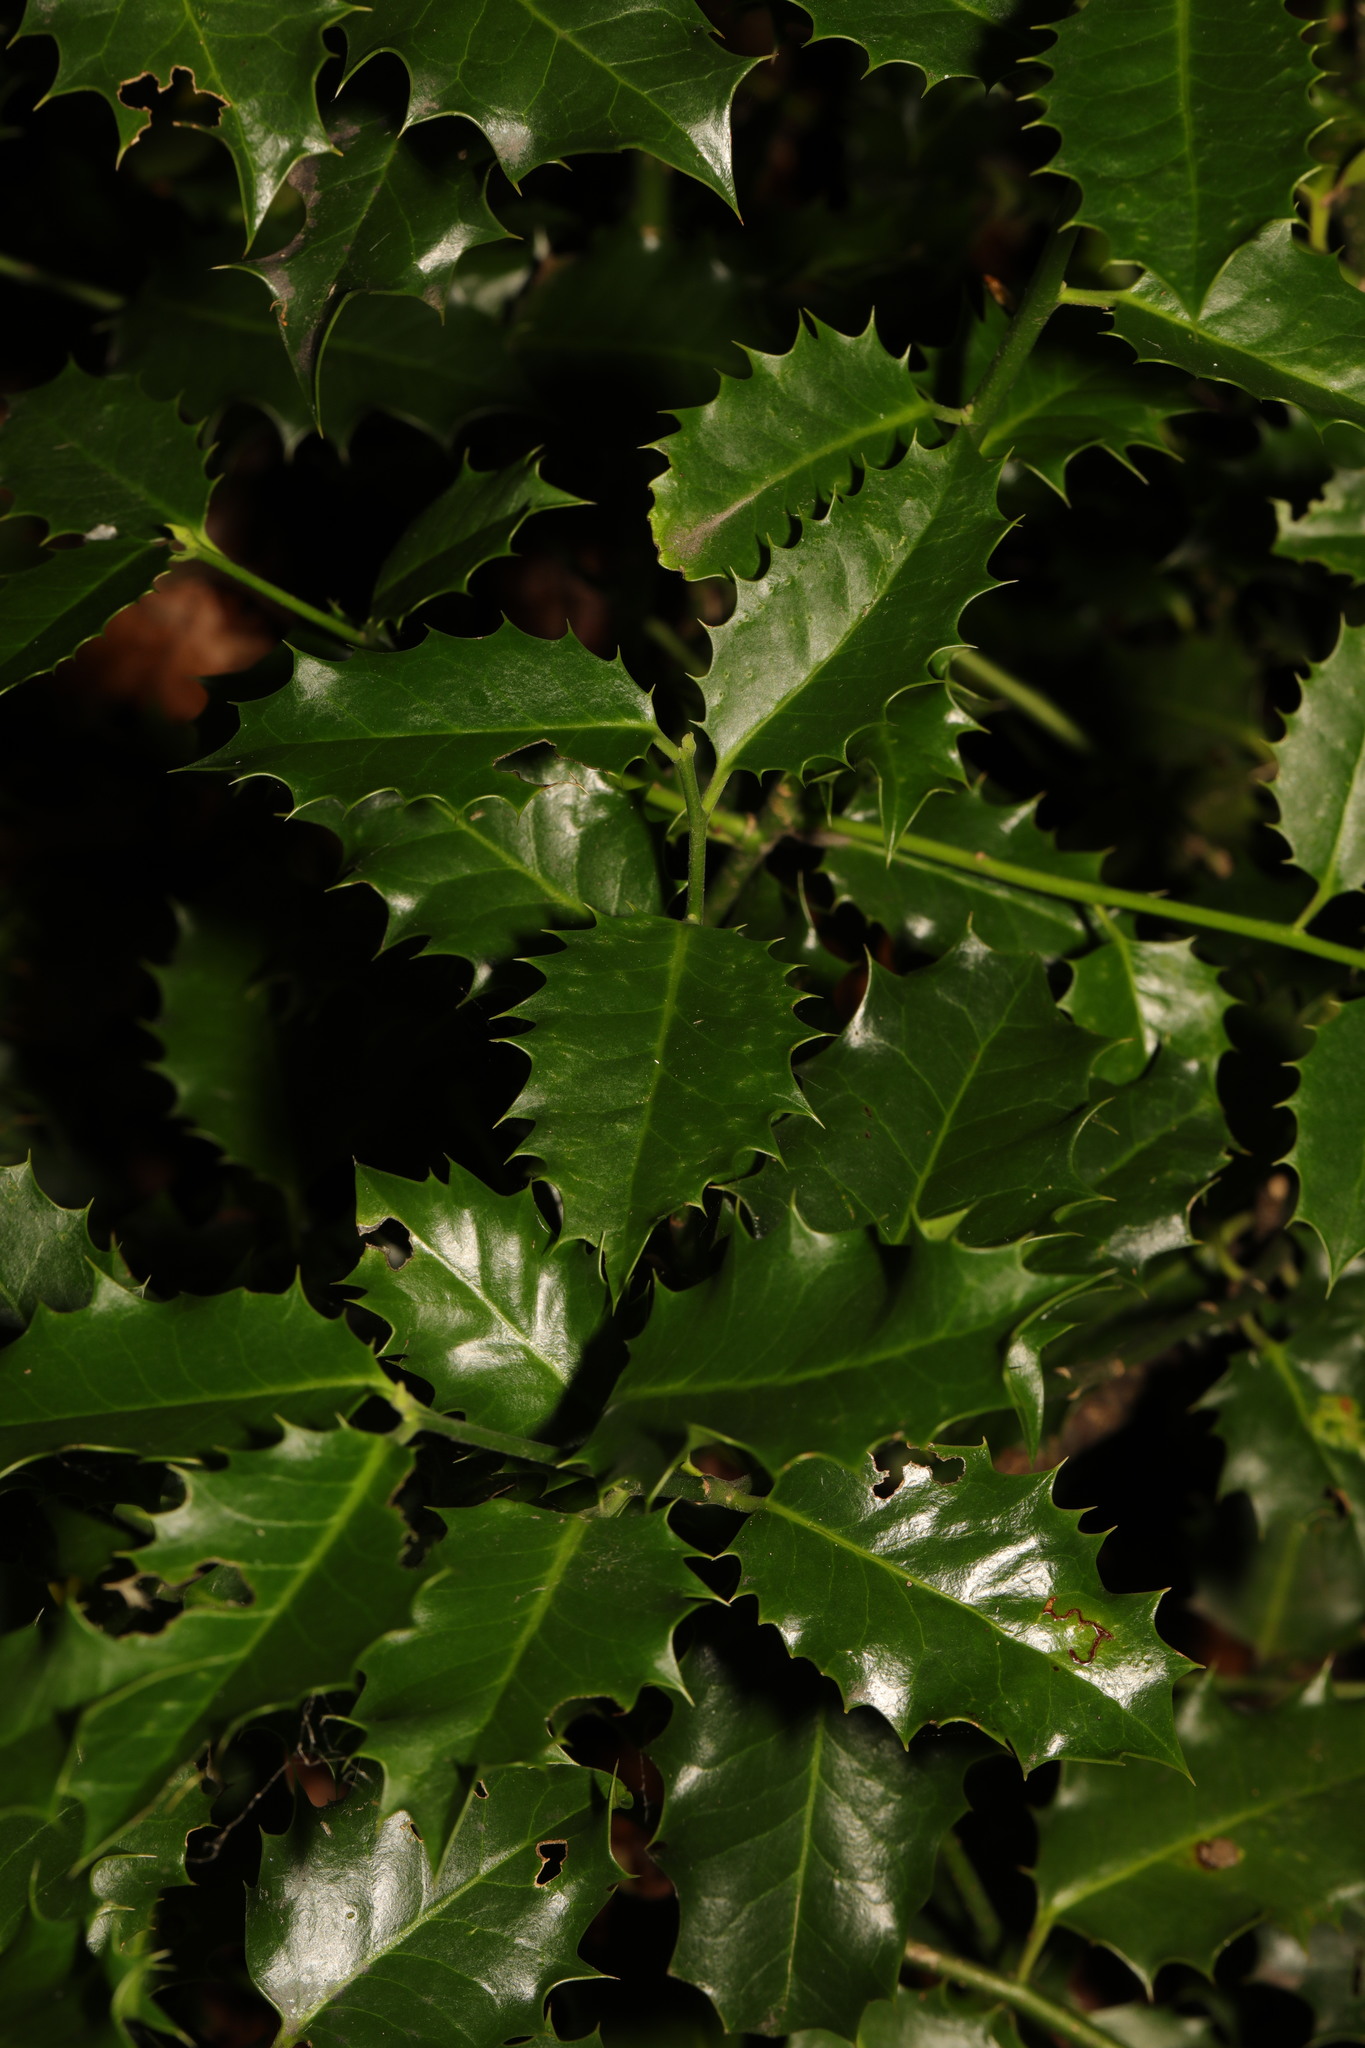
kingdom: Plantae
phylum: Tracheophyta
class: Magnoliopsida
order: Aquifoliales
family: Aquifoliaceae
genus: Ilex
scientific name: Ilex aquifolium
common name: English holly
